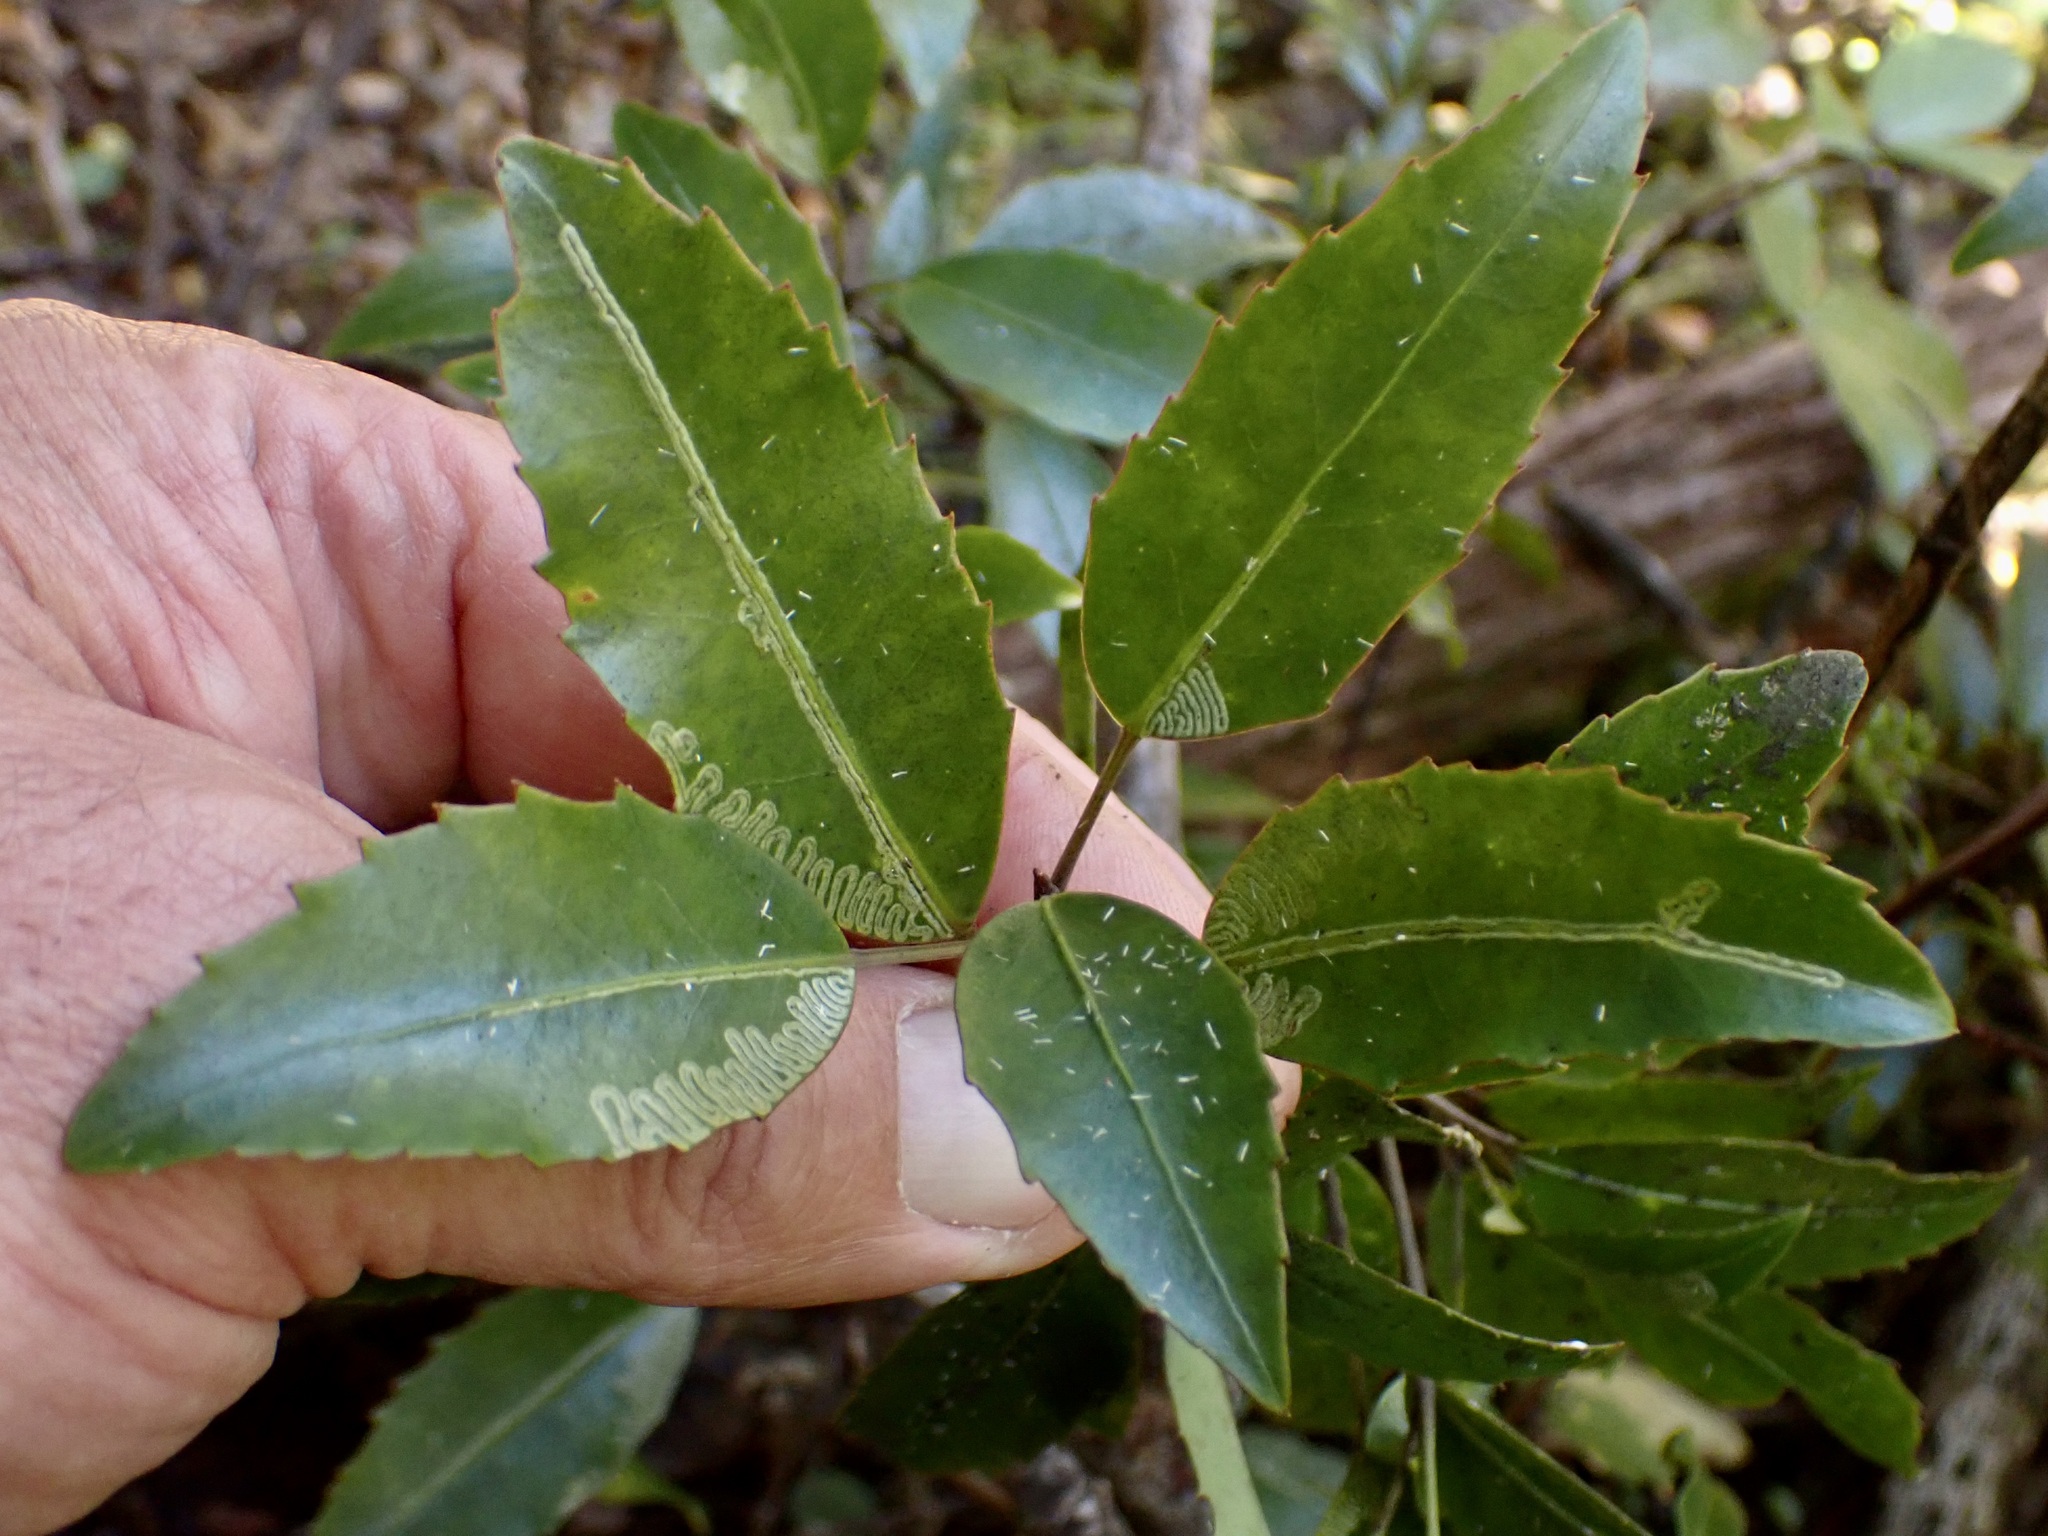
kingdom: Plantae
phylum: Tracheophyta
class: Magnoliopsida
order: Apiales
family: Araliaceae
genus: Raukaua
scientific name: Raukaua simplex
